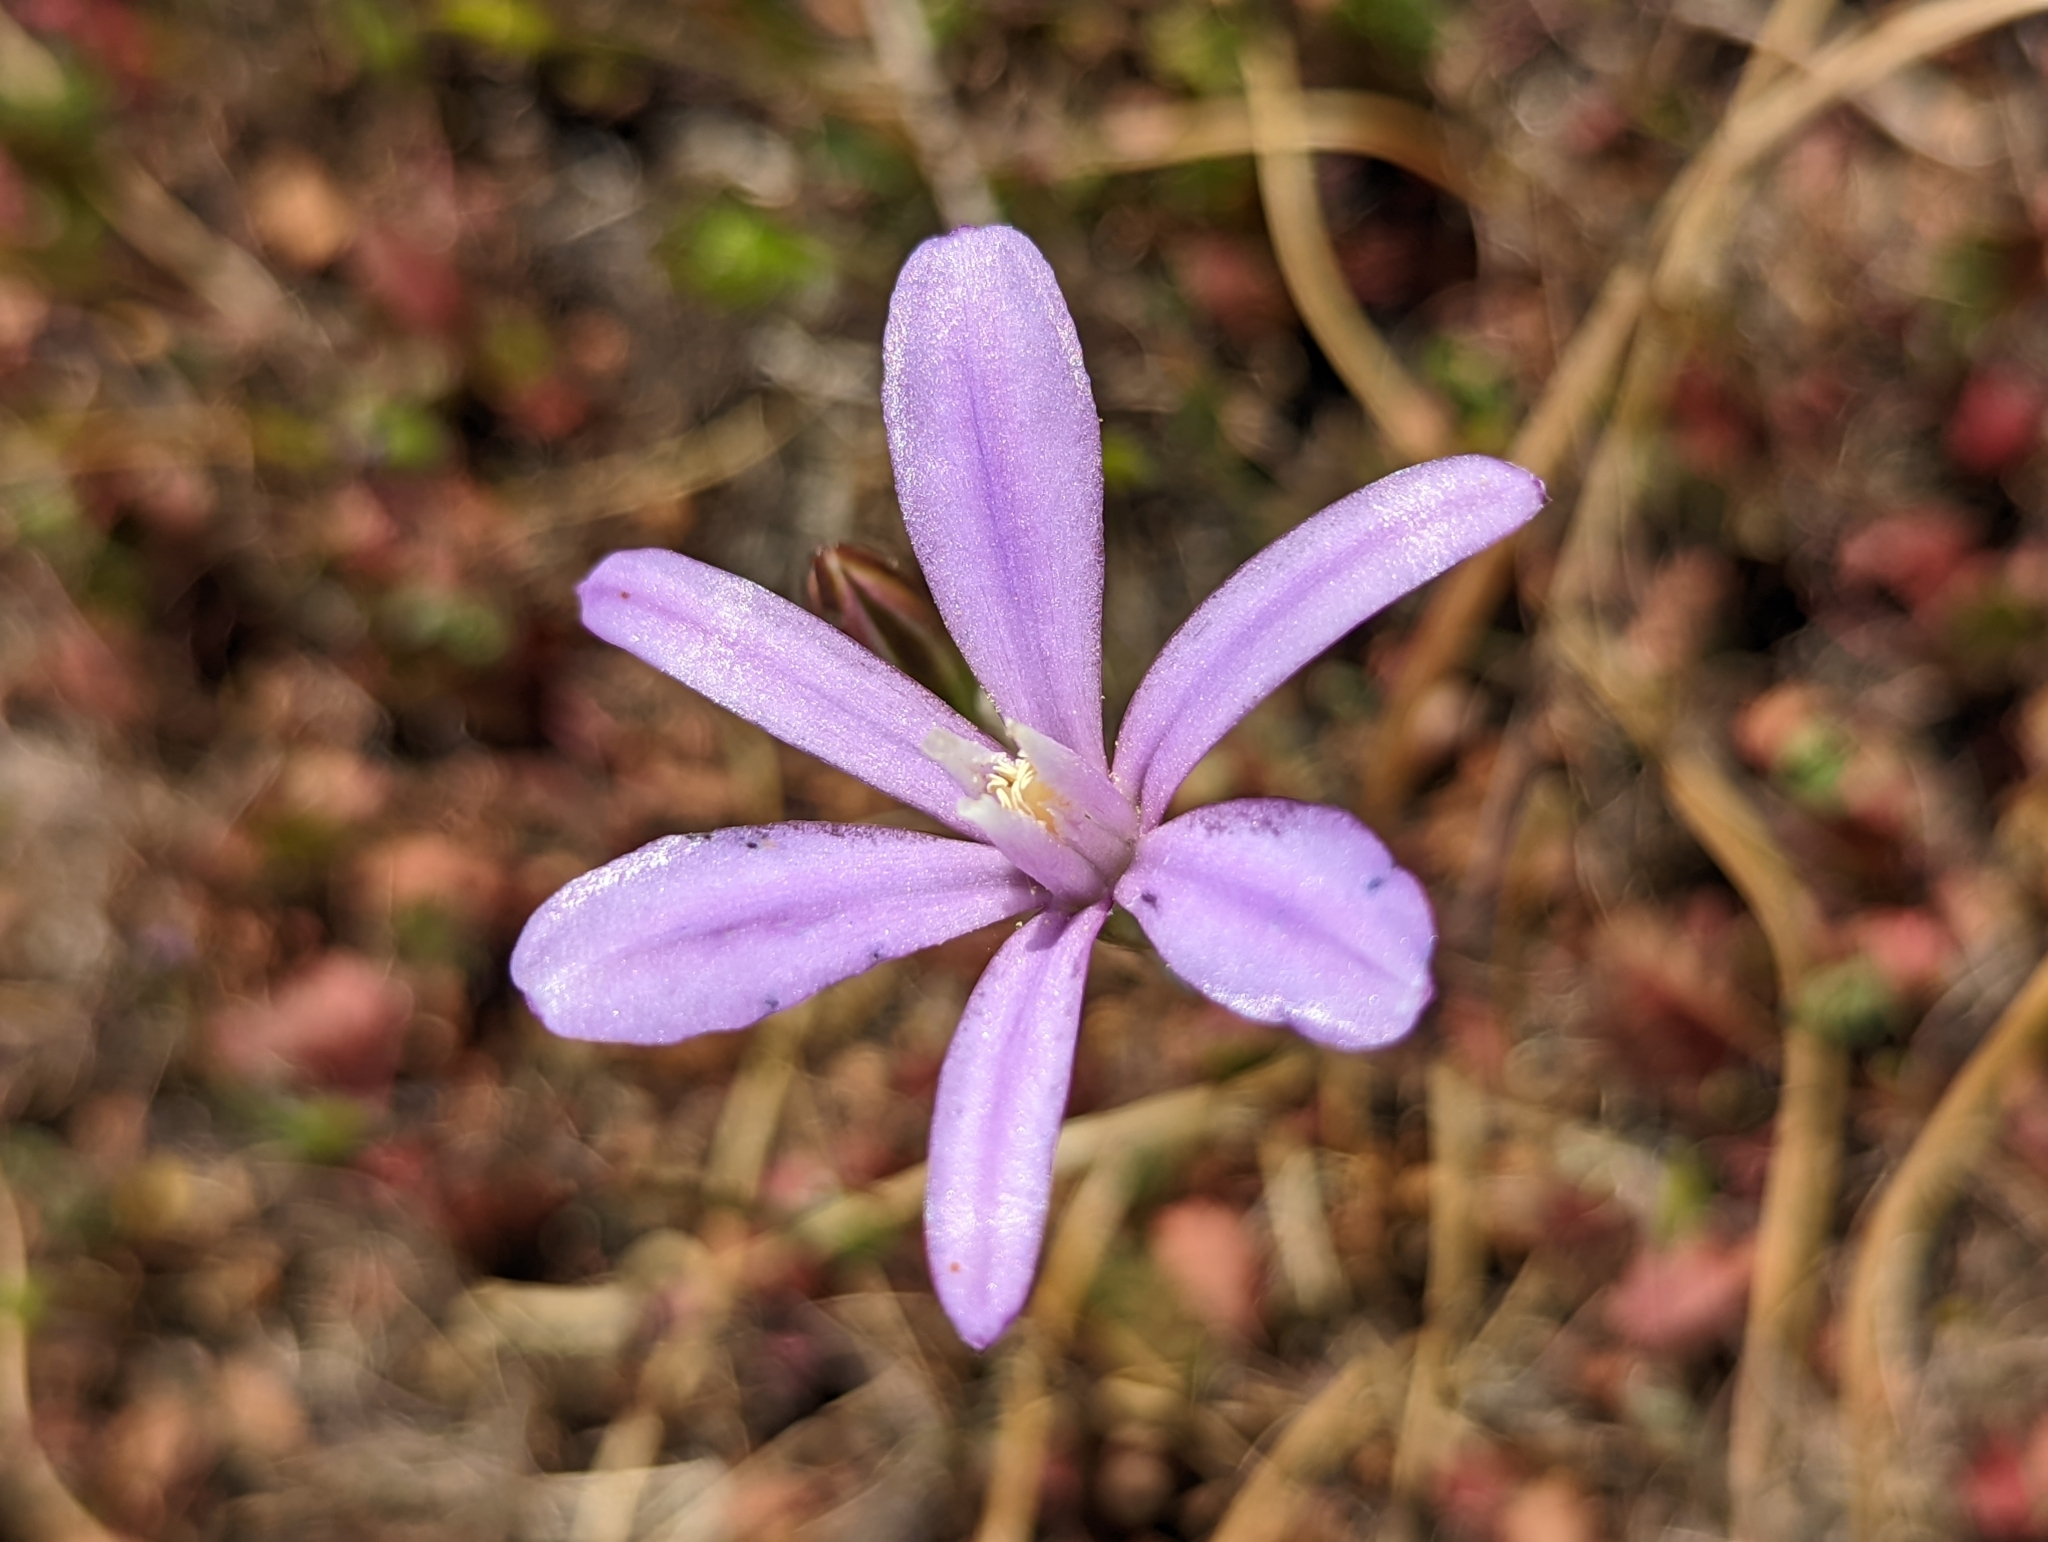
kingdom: Plantae
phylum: Tracheophyta
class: Liliopsida
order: Asparagales
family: Asparagaceae
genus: Brodiaea
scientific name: Brodiaea appendiculata
